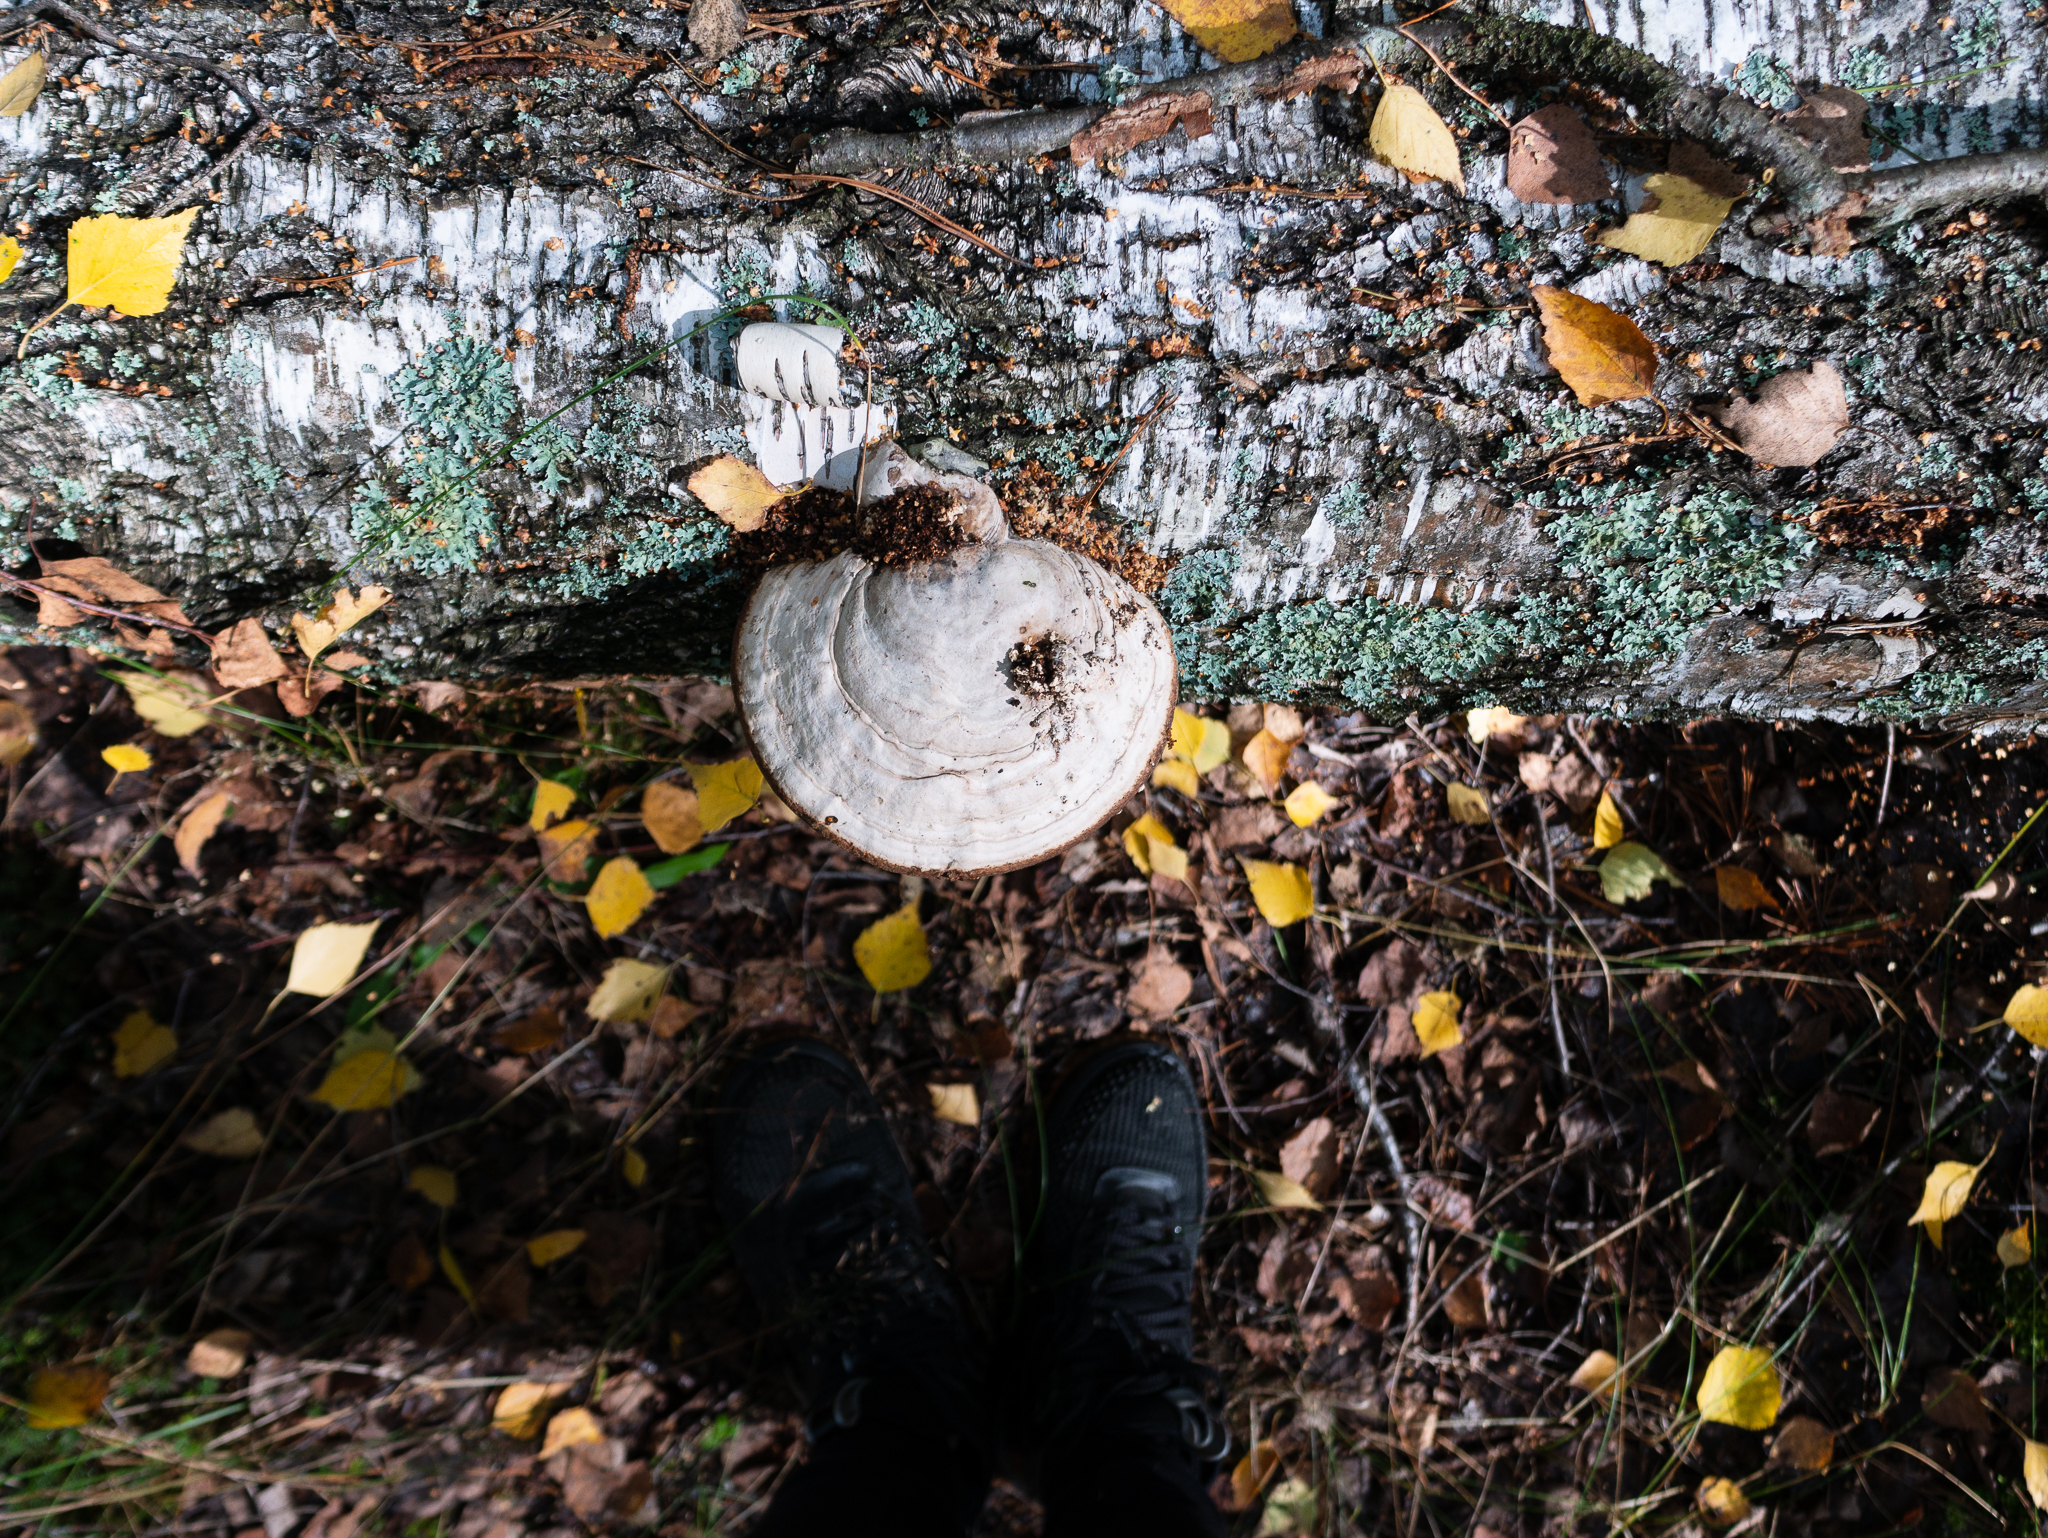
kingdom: Fungi
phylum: Basidiomycota
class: Agaricomycetes
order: Polyporales
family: Polyporaceae
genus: Fomes
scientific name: Fomes fomentarius
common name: Hoof fungus
